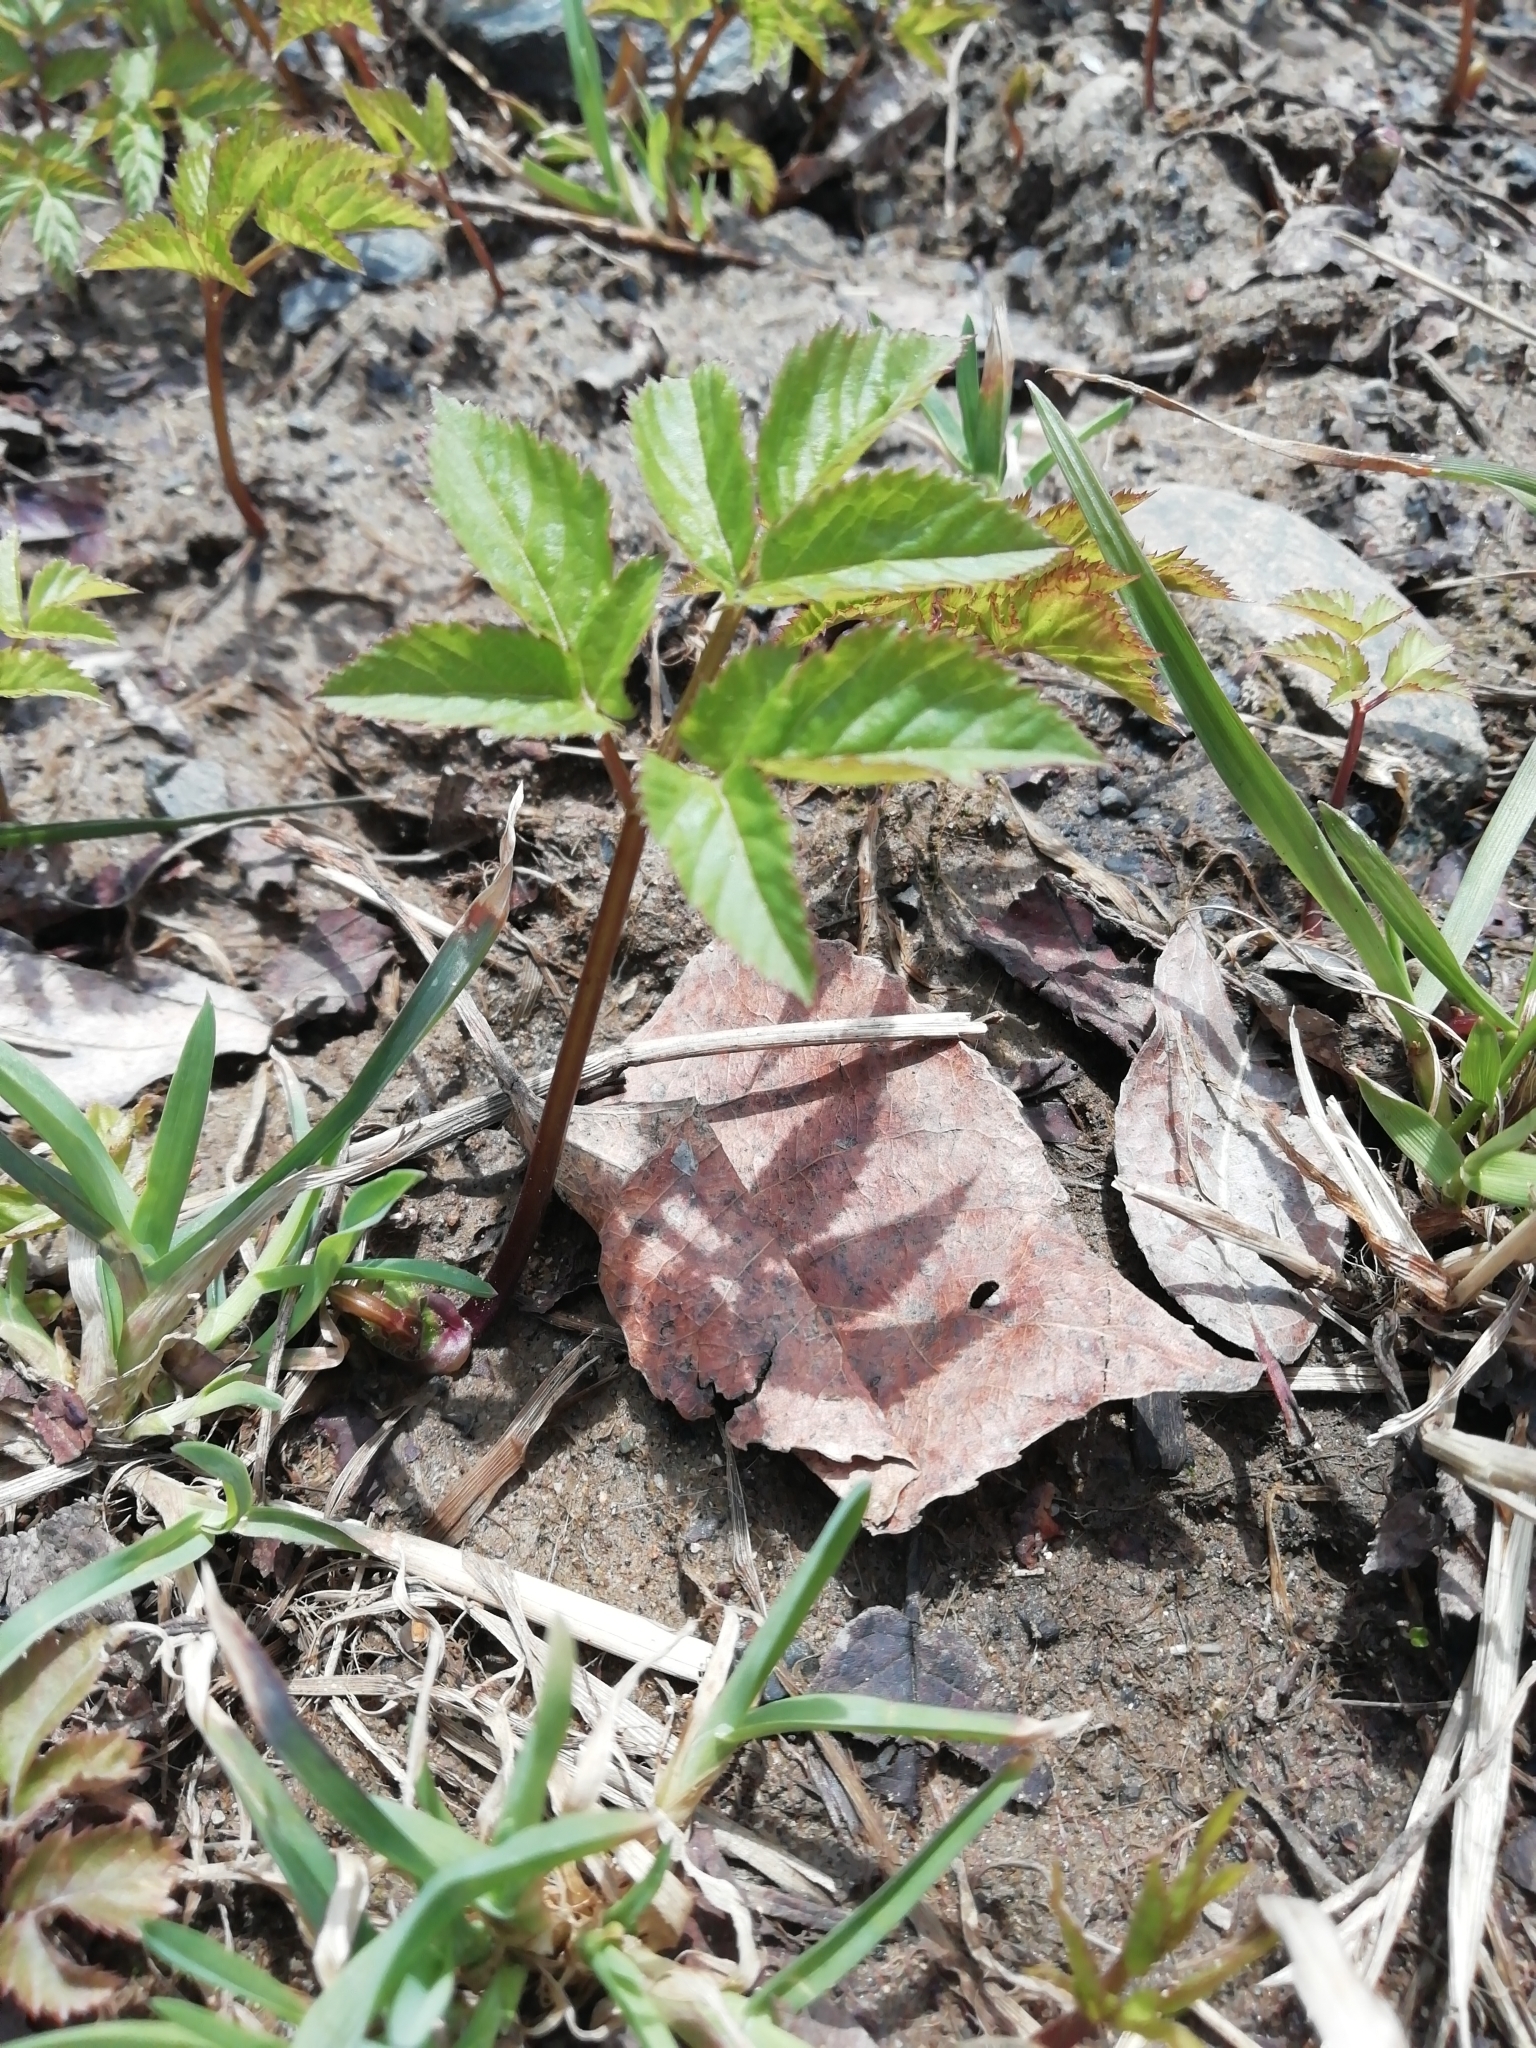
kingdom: Plantae
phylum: Tracheophyta
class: Magnoliopsida
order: Apiales
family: Apiaceae
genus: Aegopodium
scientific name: Aegopodium podagraria
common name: Ground-elder
